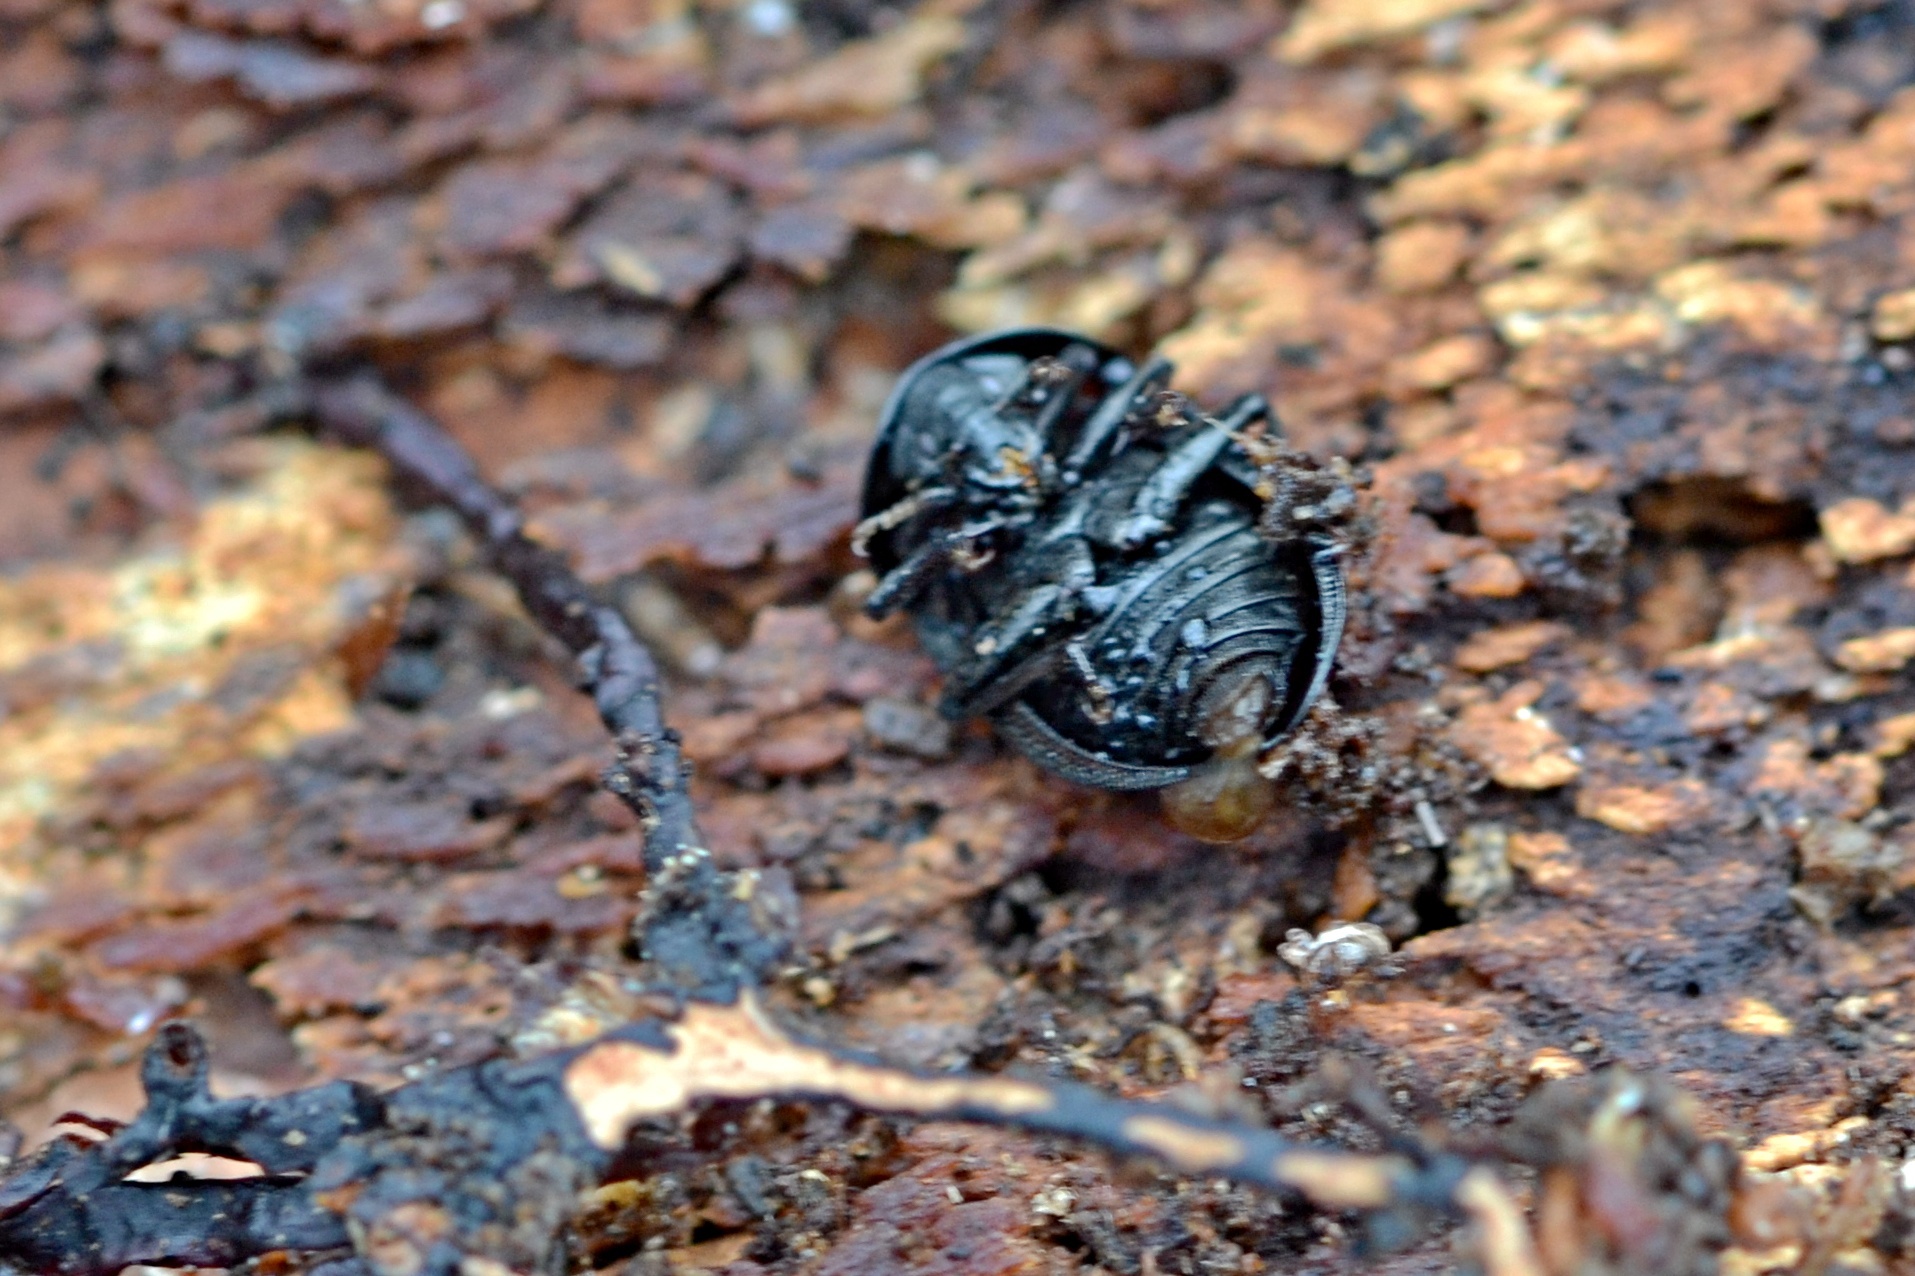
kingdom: Animalia
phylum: Arthropoda
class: Insecta
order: Coleoptera
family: Staphylinidae
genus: Silpha
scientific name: Silpha atrata
